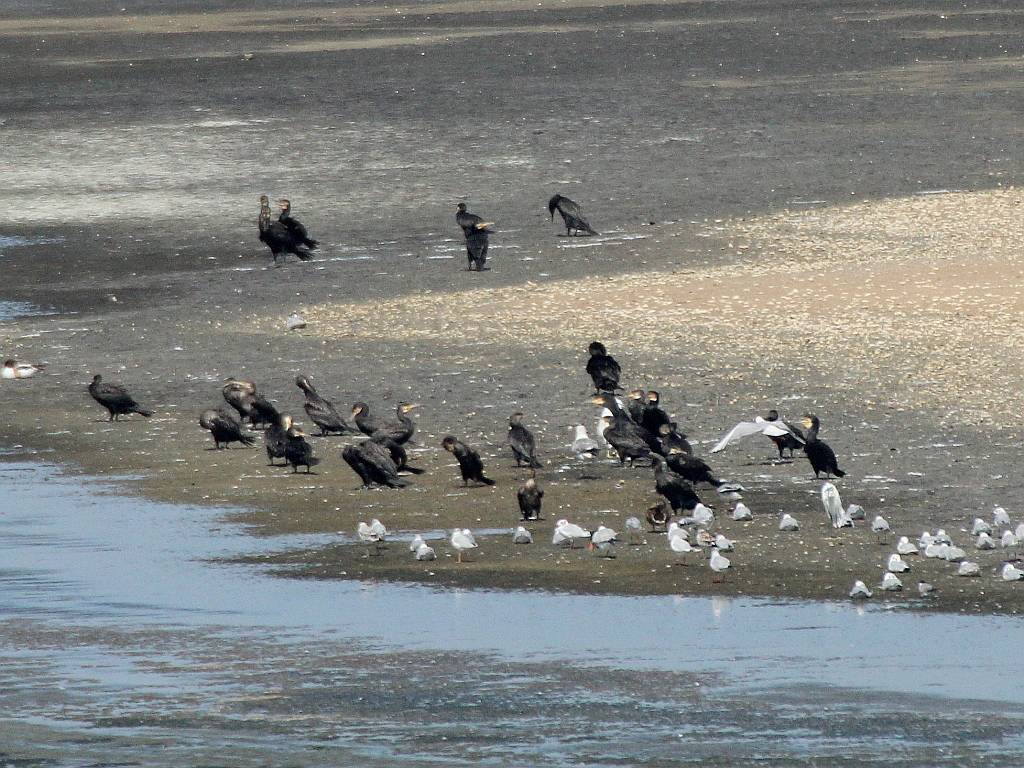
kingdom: Animalia
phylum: Chordata
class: Aves
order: Suliformes
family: Phalacrocoracidae
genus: Phalacrocorax
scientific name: Phalacrocorax carbo
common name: Great cormorant
